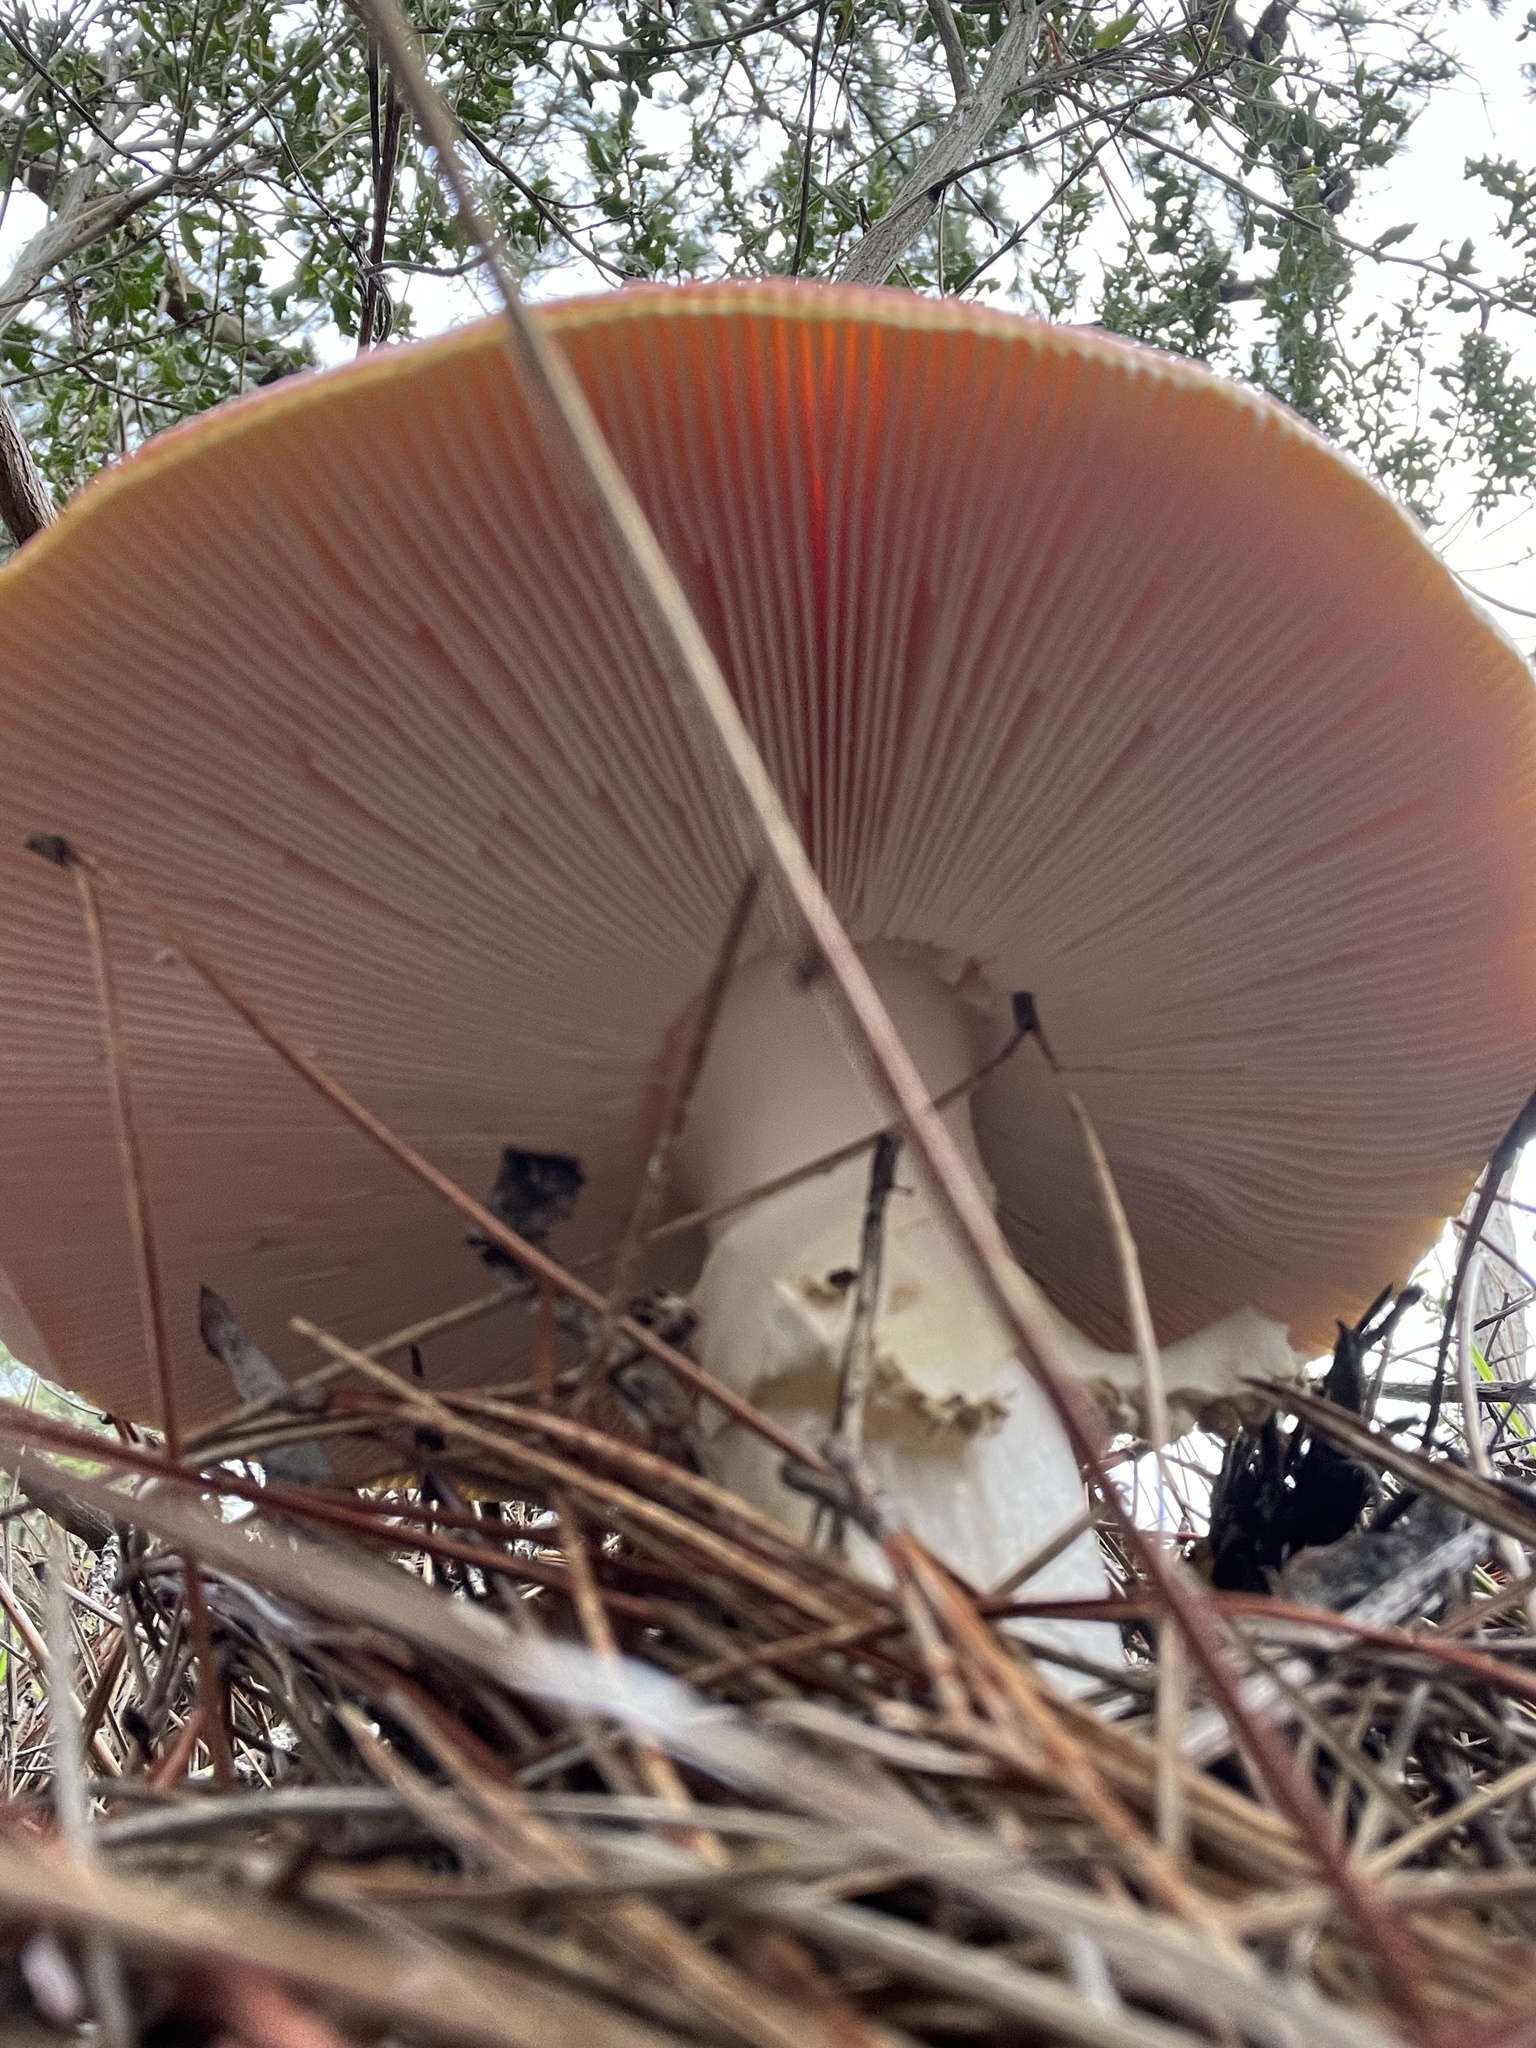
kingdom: Fungi
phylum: Basidiomycota
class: Agaricomycetes
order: Agaricales
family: Amanitaceae
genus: Amanita
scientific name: Amanita muscaria
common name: Fly agaric
